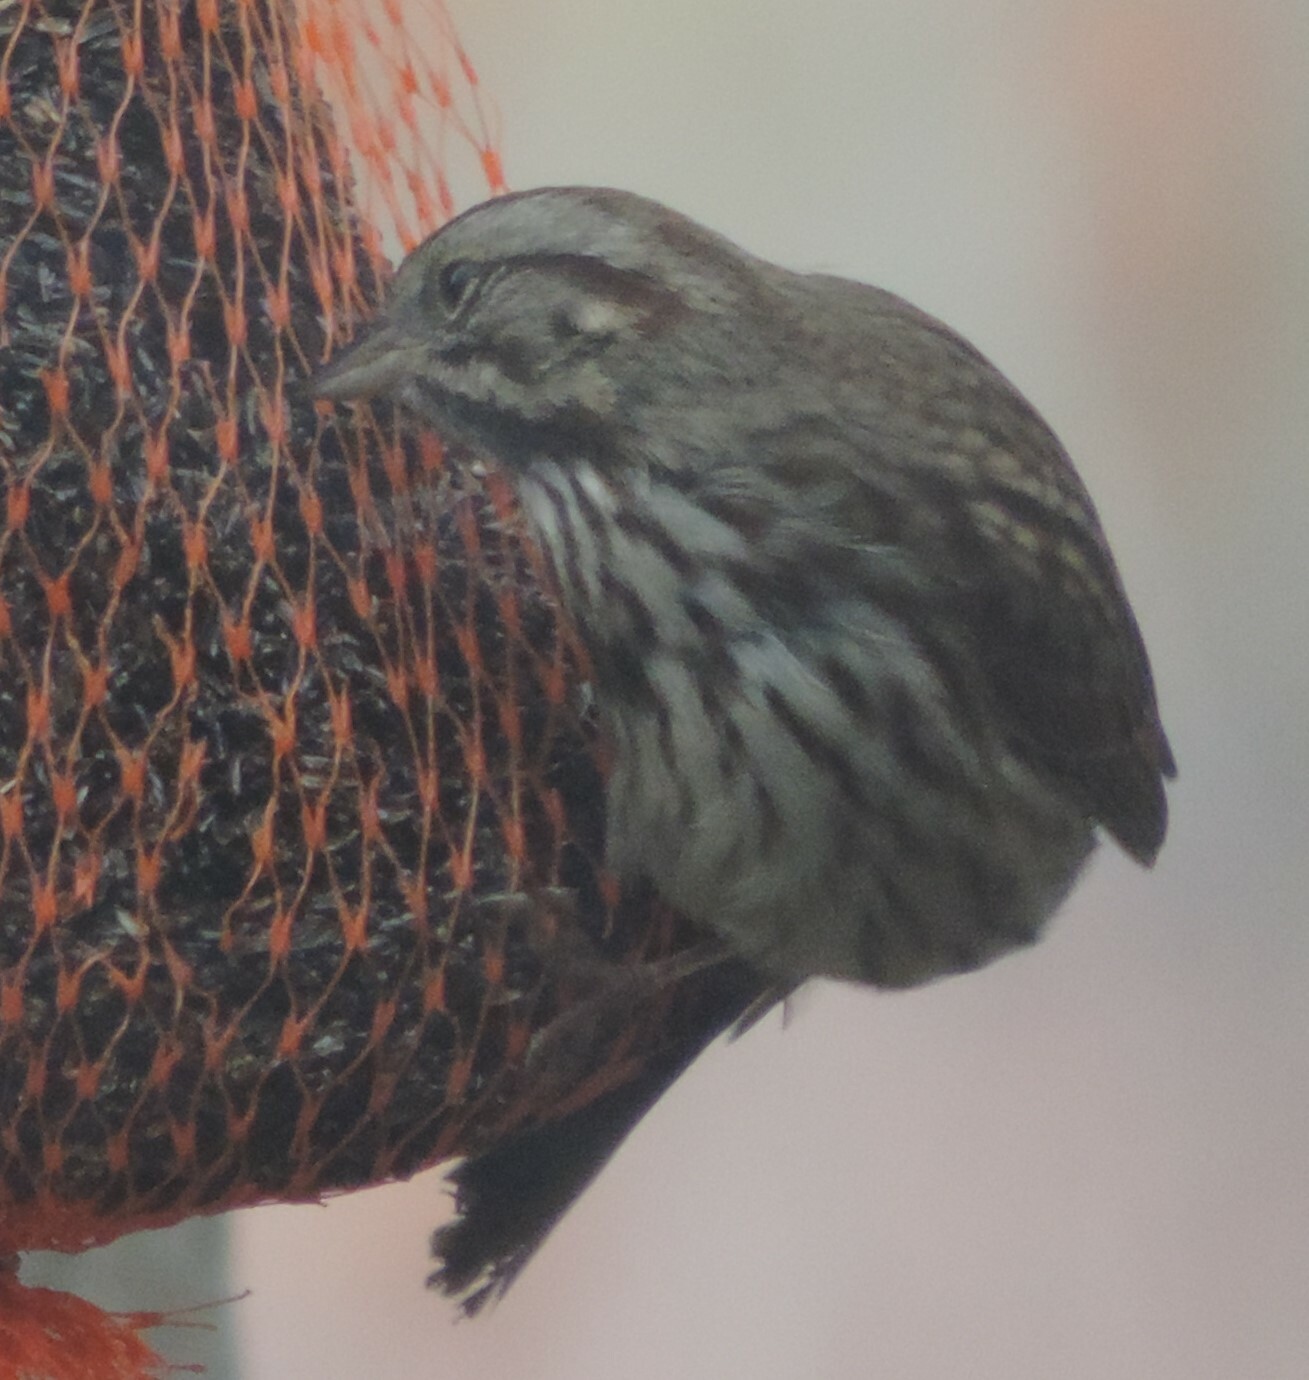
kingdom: Animalia
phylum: Chordata
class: Aves
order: Passeriformes
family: Passerellidae
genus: Melospiza
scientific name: Melospiza melodia
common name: Song sparrow
